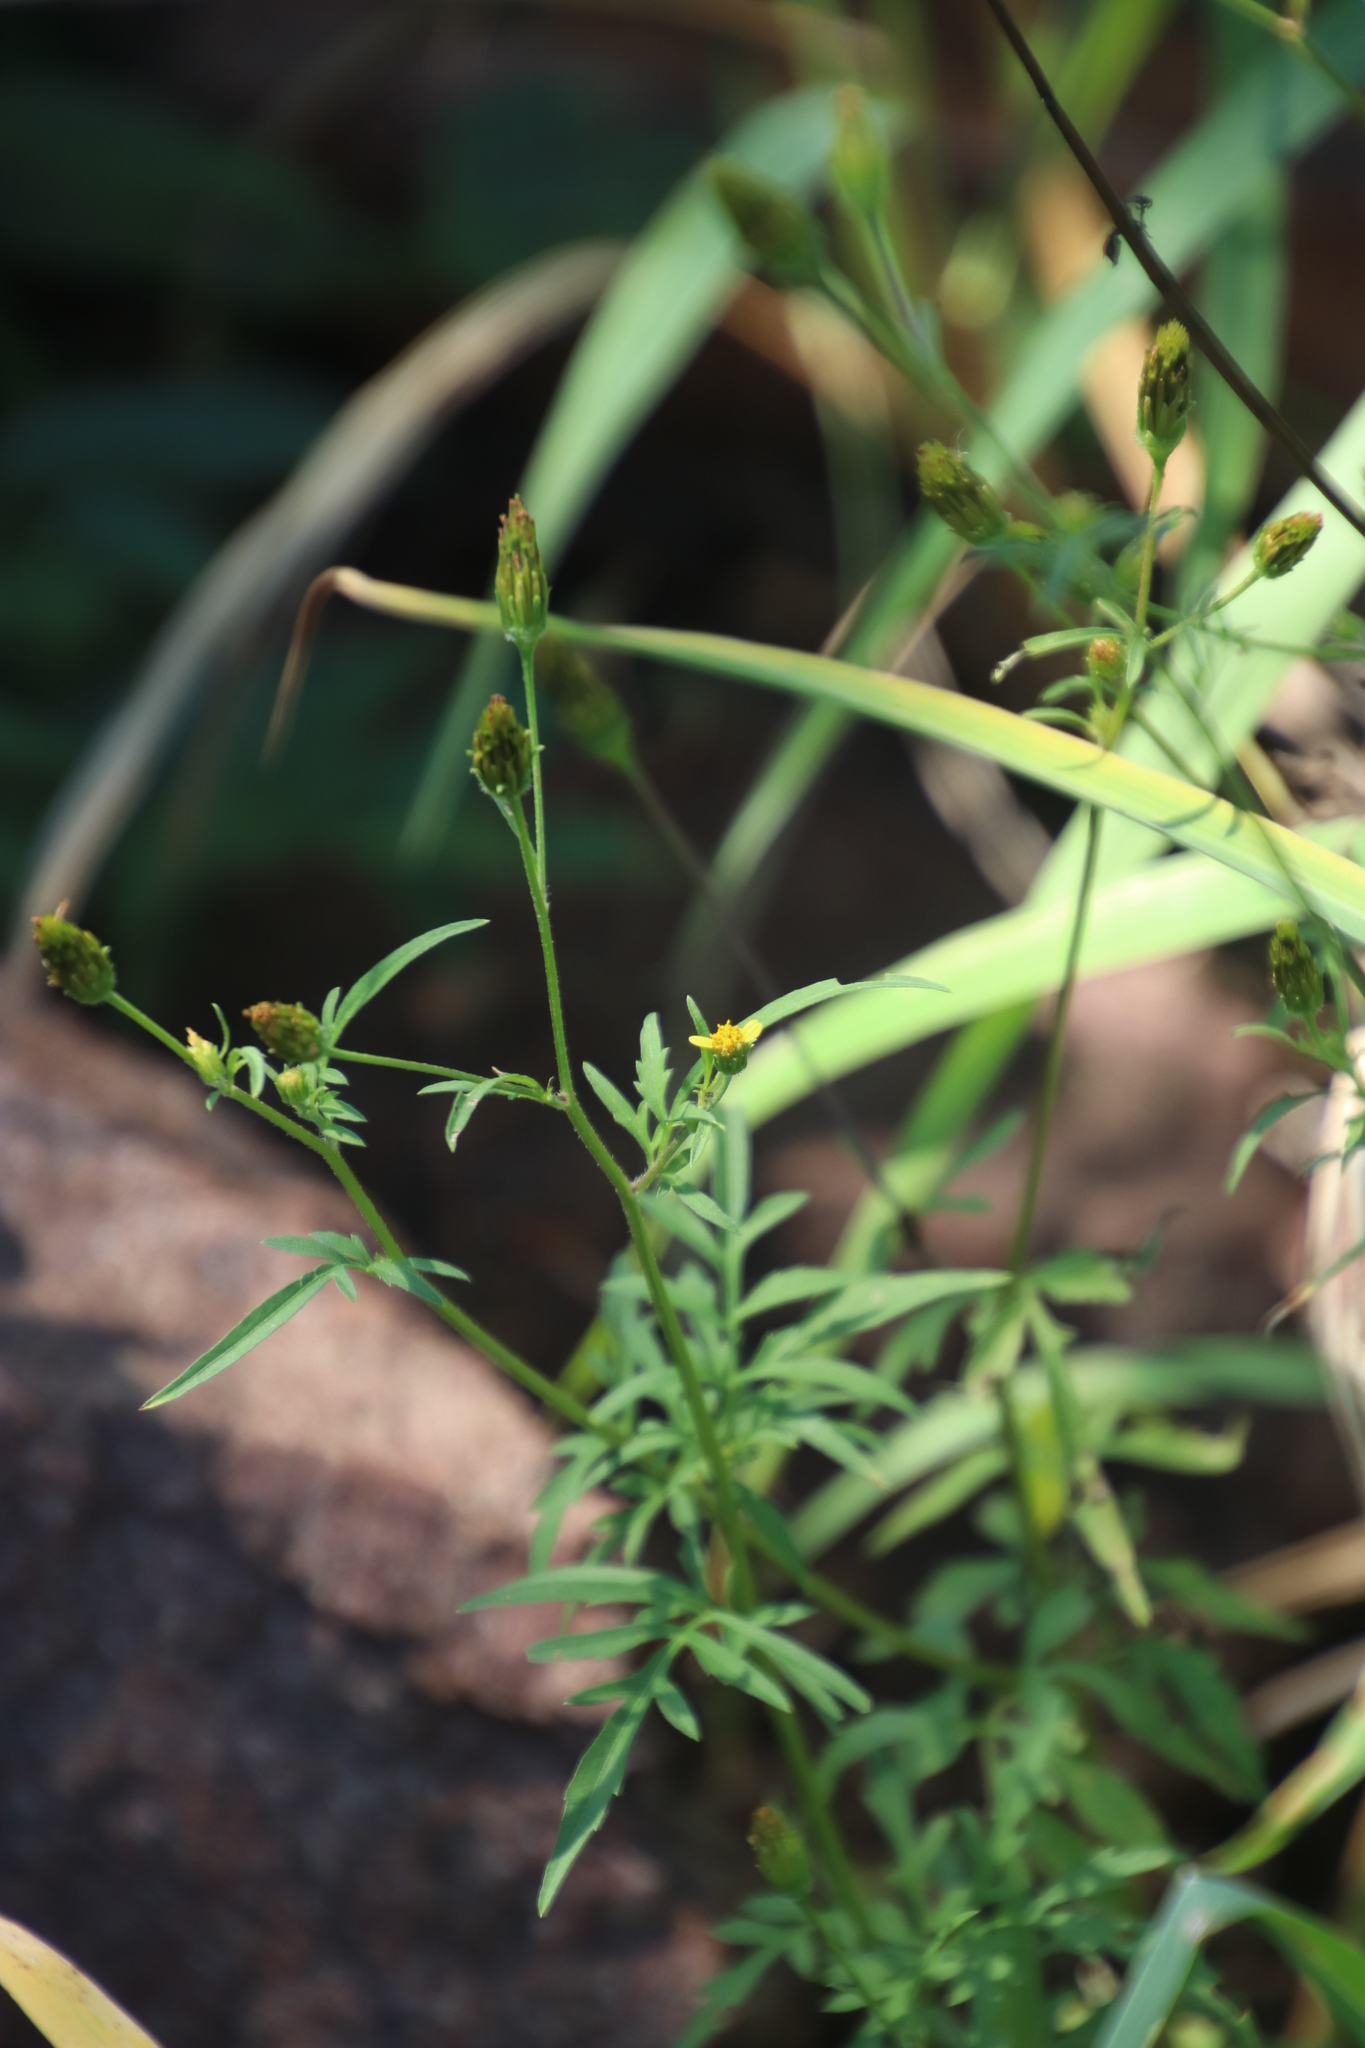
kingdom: Plantae
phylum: Tracheophyta
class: Magnoliopsida
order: Asterales
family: Asteraceae
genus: Bidens
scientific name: Bidens bipinnata
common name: Spanish-needles
